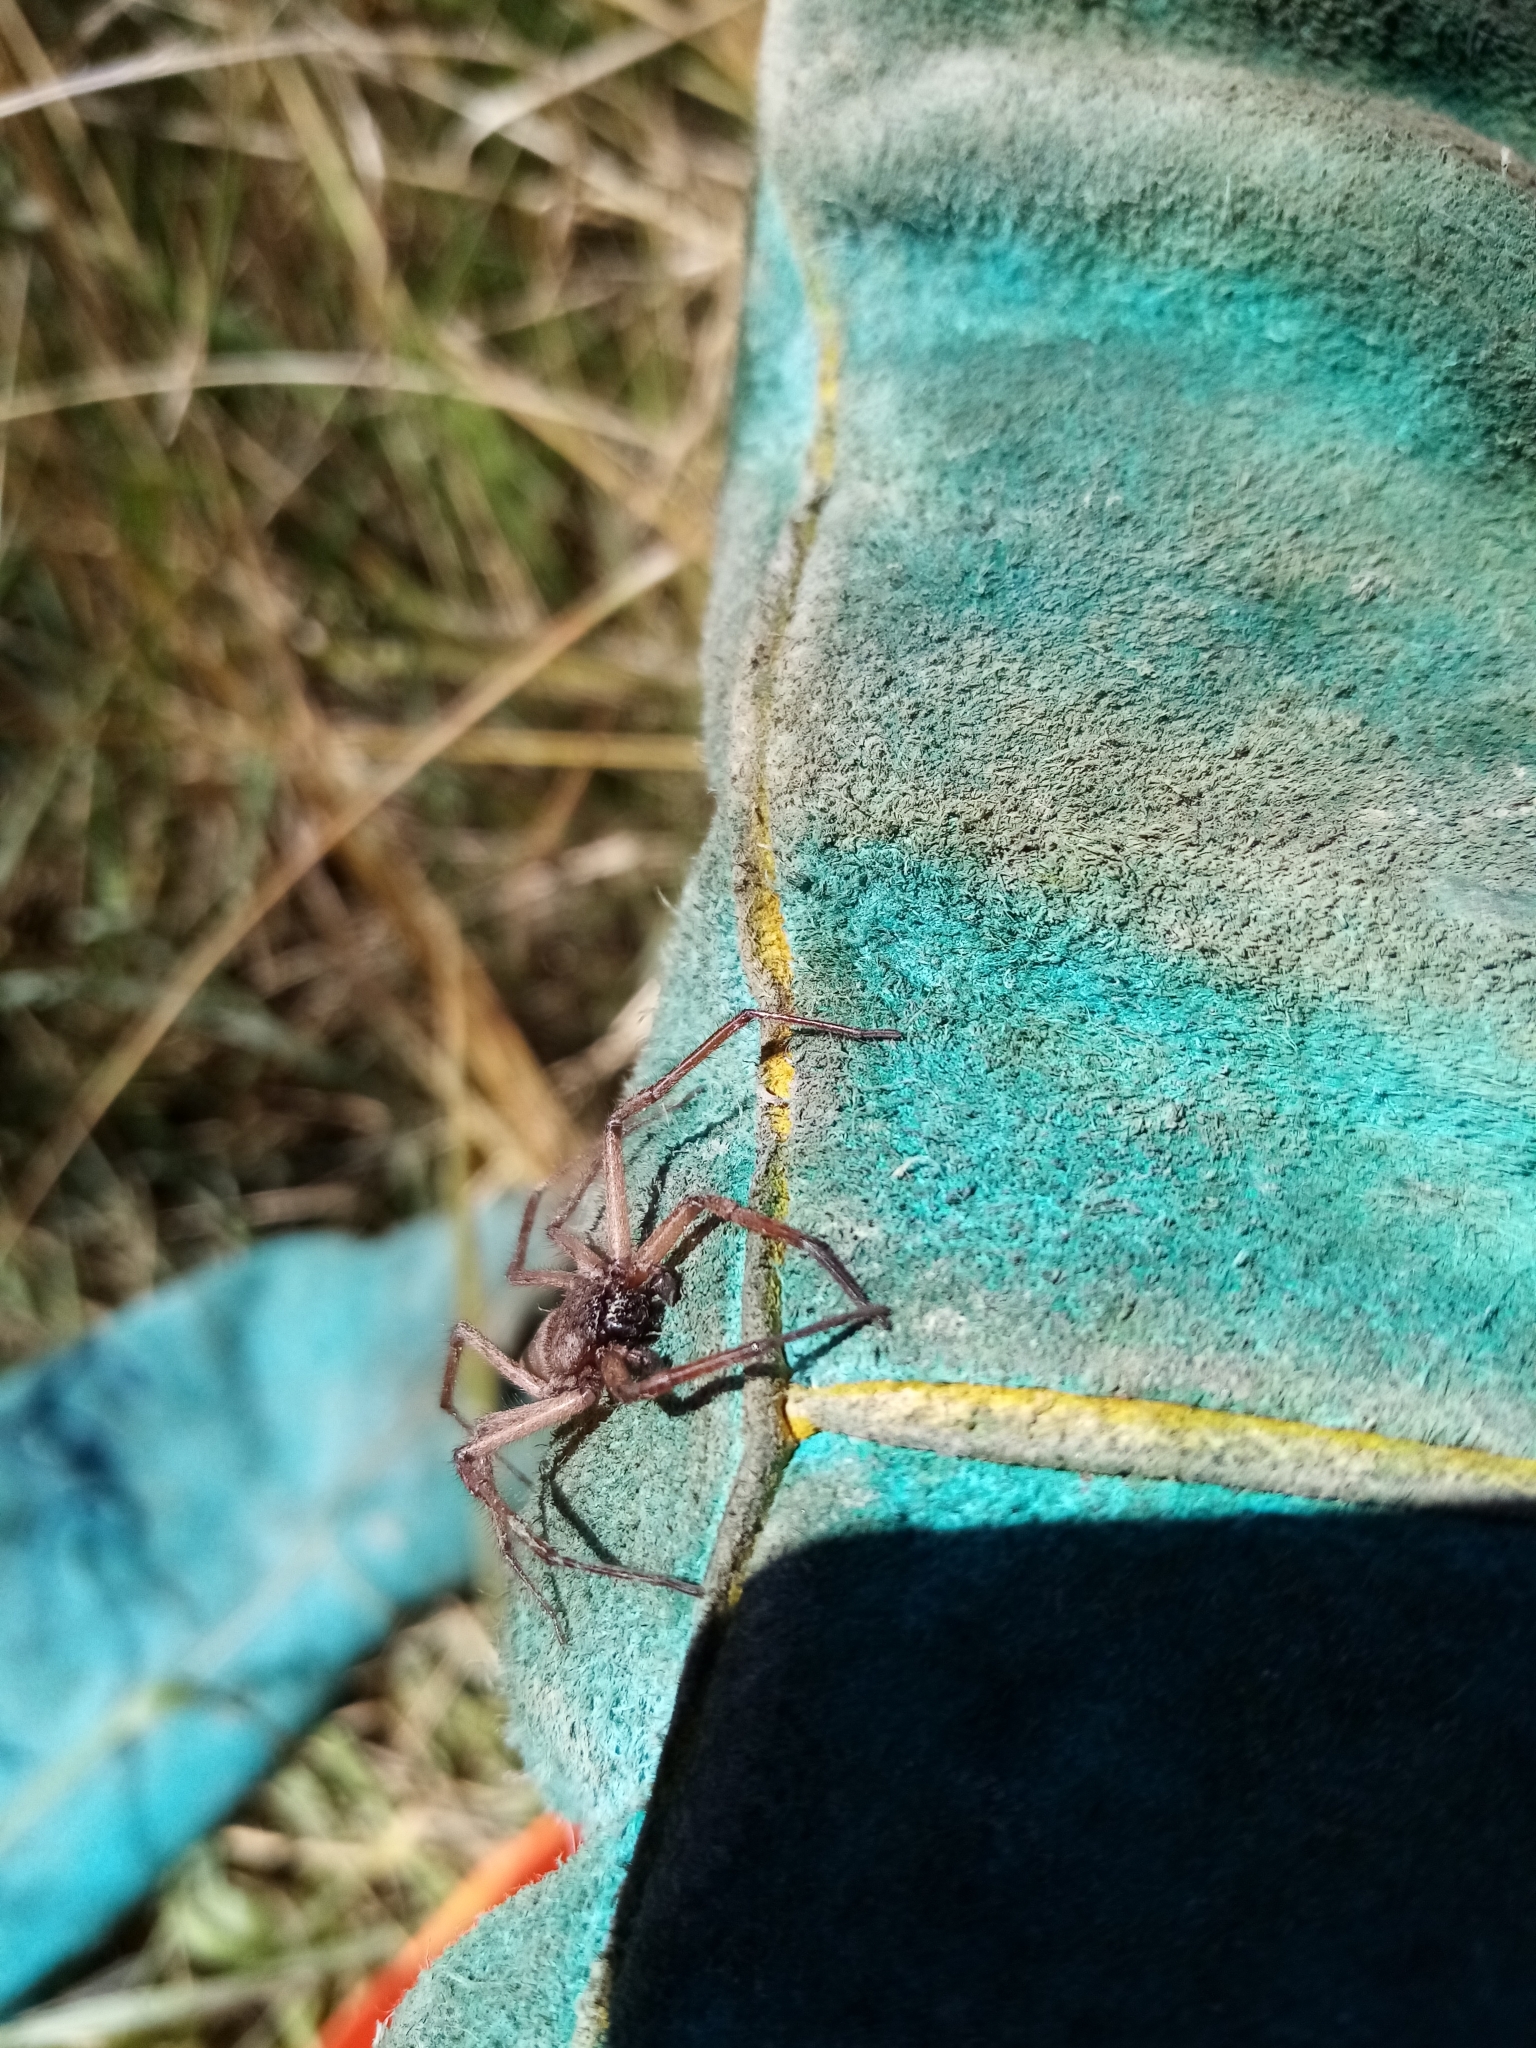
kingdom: Animalia
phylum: Arthropoda
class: Arachnida
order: Araneae
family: Trochanteriidae
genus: Hemicloea
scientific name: Hemicloea rogenhoferi
